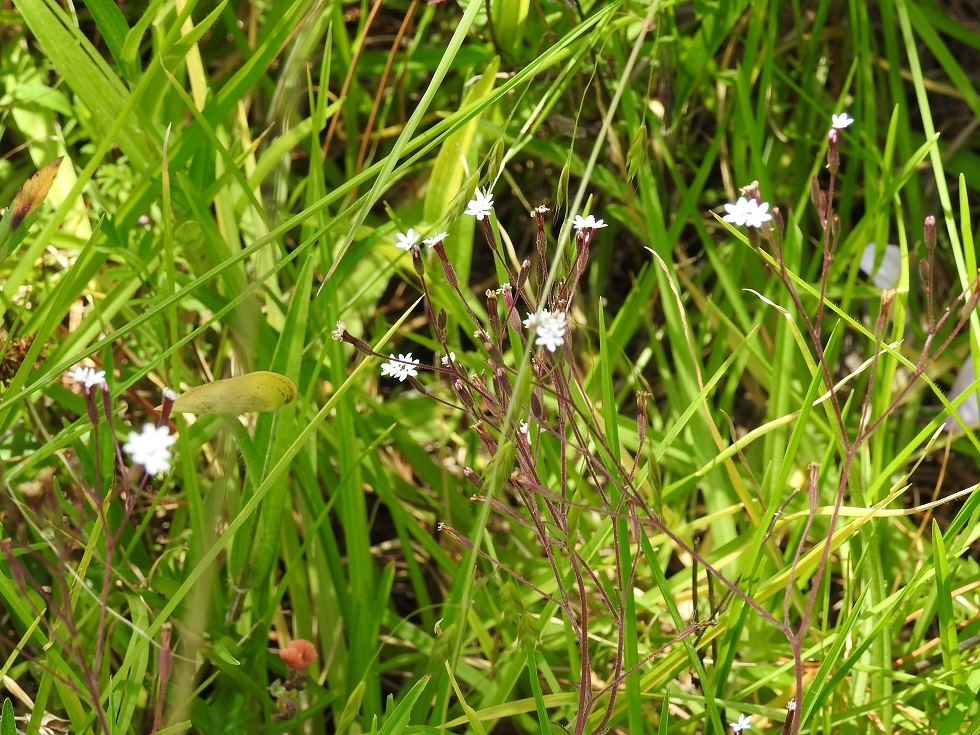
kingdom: Plantae
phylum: Tracheophyta
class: Magnoliopsida
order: Asterales
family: Asteraceae
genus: Stevia
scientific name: Stevia elatior
